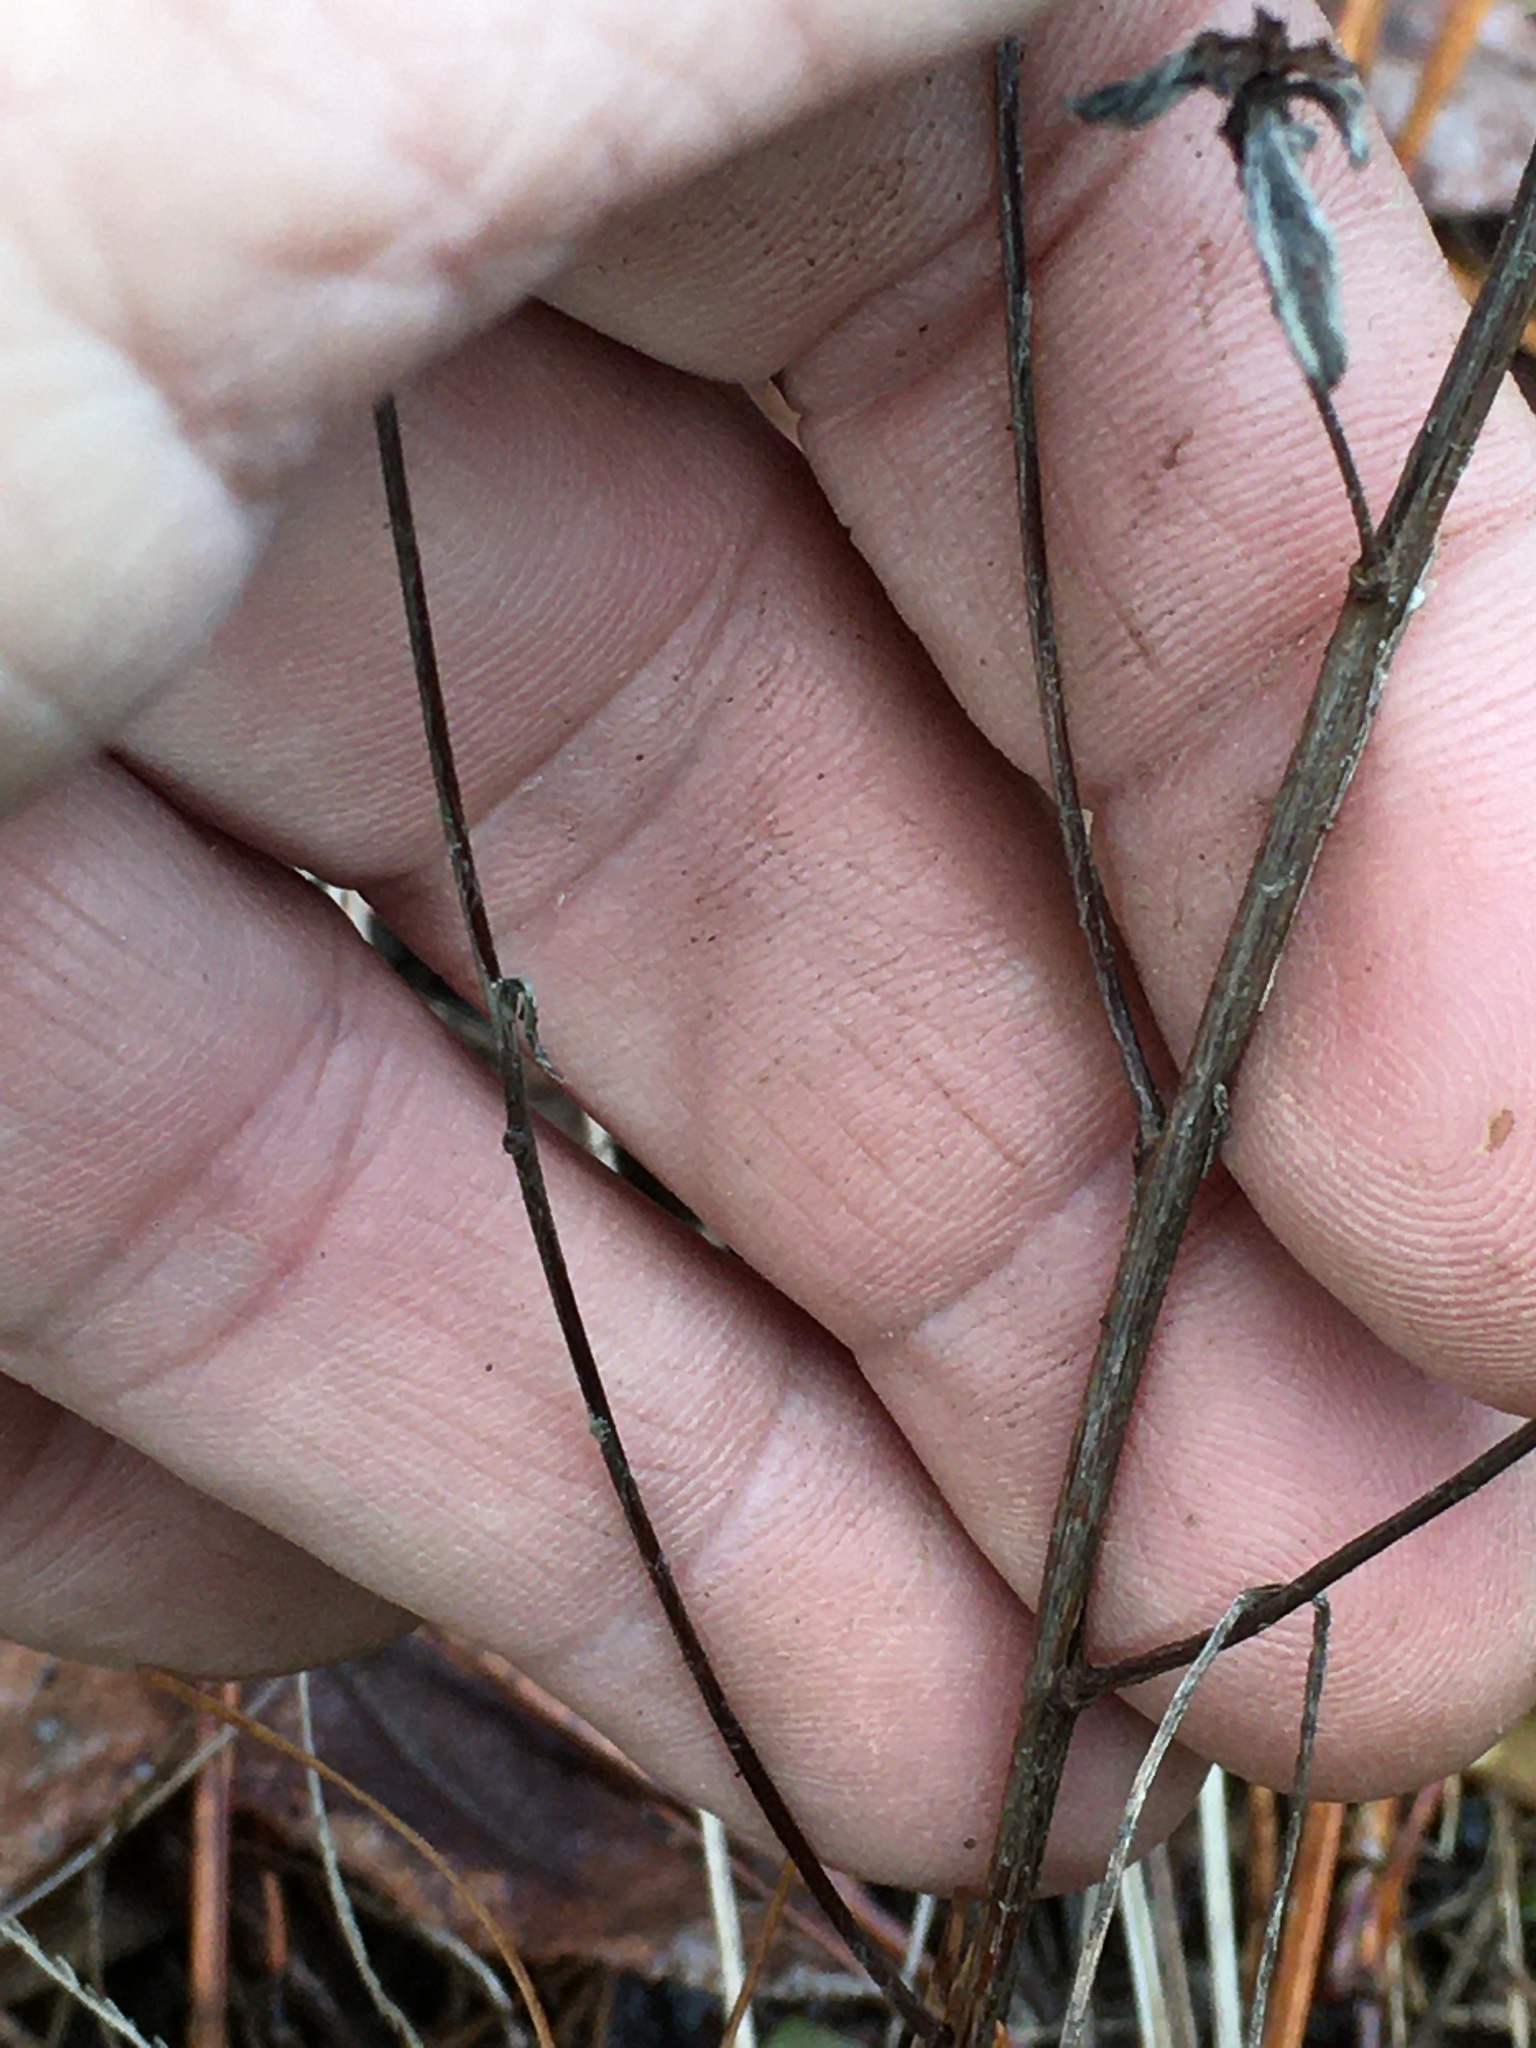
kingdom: Plantae
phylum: Tracheophyta
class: Magnoliopsida
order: Myrtales
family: Onagraceae
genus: Oenothera
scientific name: Oenothera fruticosa
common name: Southern sundrops
